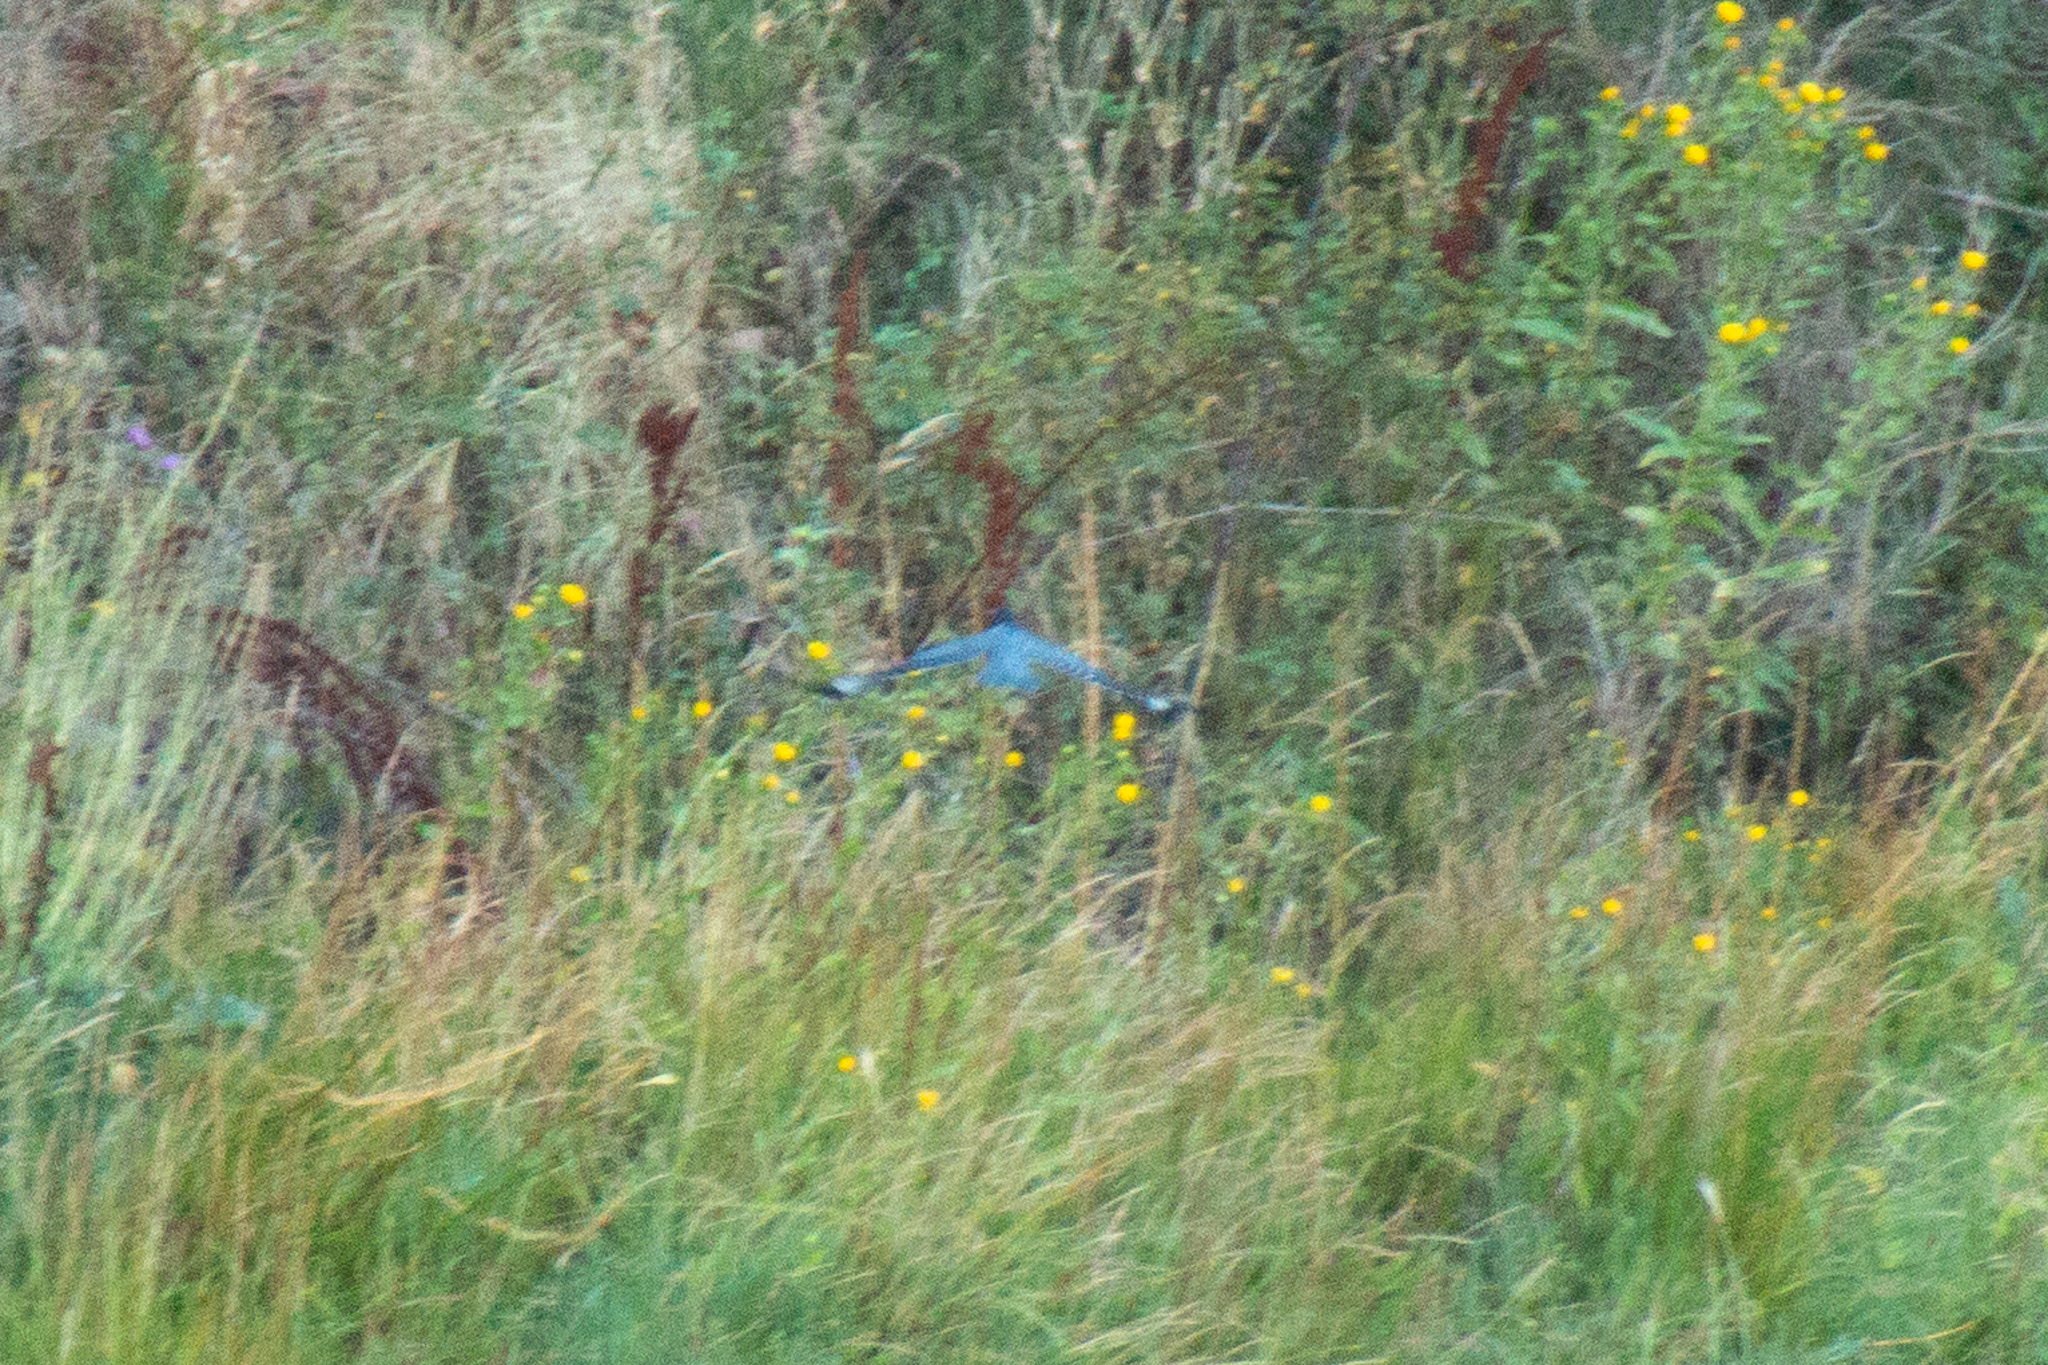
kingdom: Animalia
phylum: Chordata
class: Aves
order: Coraciiformes
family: Alcedinidae
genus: Megaceryle
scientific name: Megaceryle alcyon
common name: Belted kingfisher
